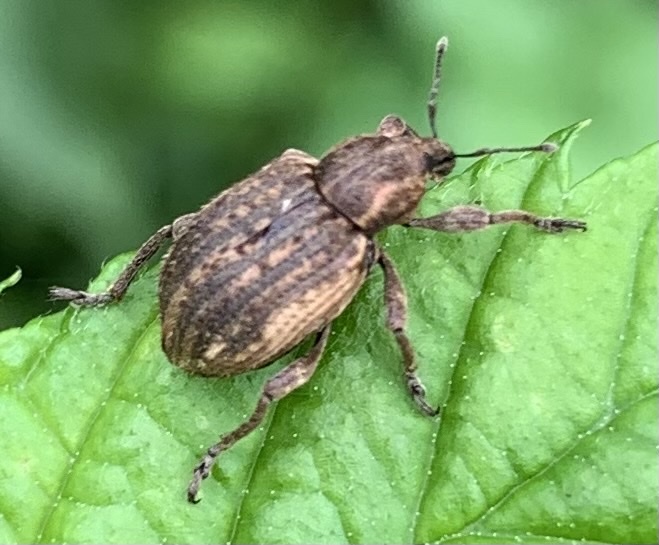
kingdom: Animalia
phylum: Arthropoda
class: Insecta
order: Coleoptera
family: Curculionidae
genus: Brachypera
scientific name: Brachypera zoilus
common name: Clover leaf weevil
